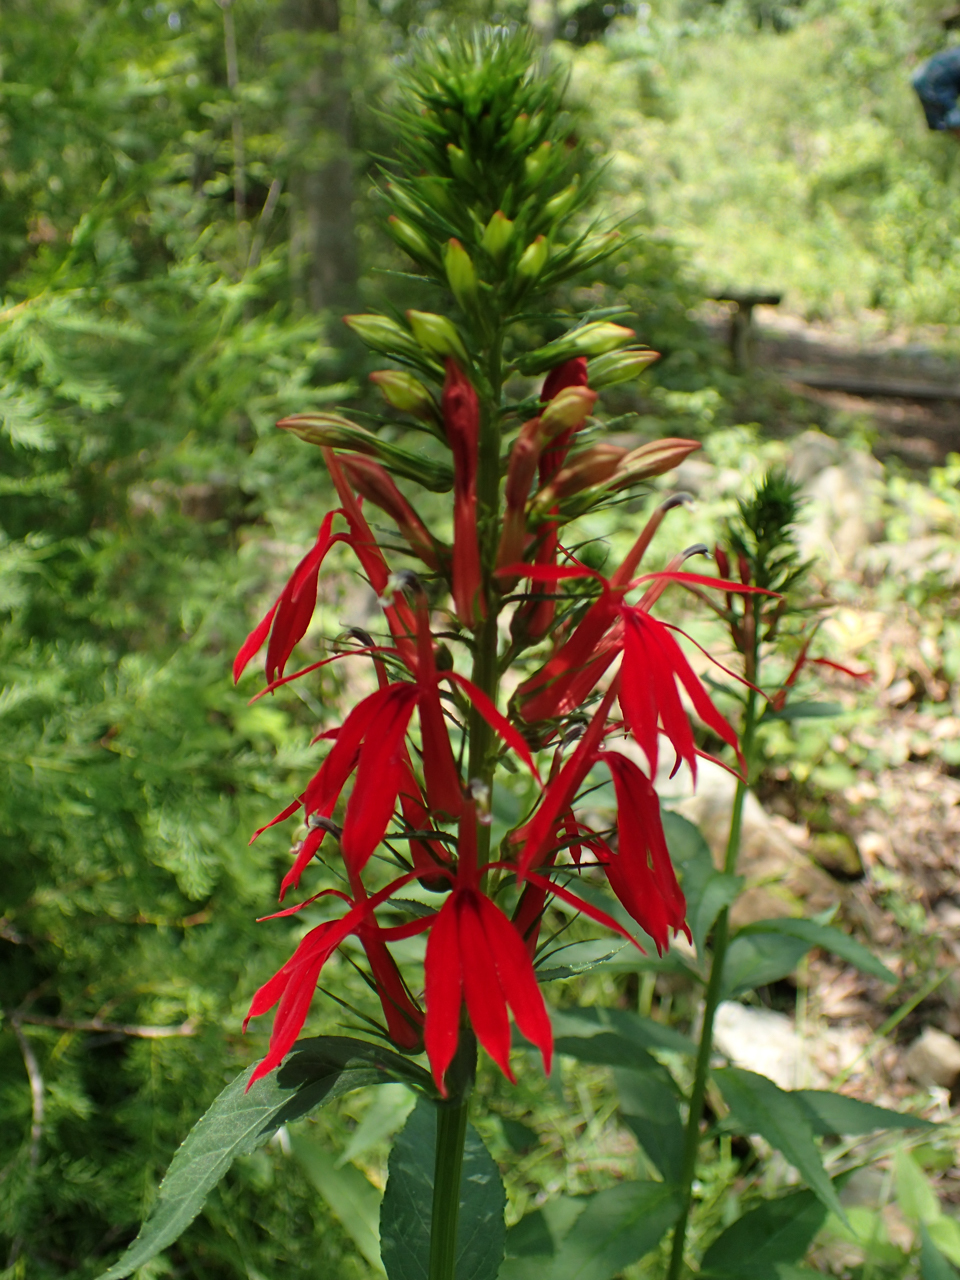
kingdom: Plantae
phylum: Tracheophyta
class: Magnoliopsida
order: Asterales
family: Campanulaceae
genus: Lobelia
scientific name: Lobelia cardinalis
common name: Cardinal flower
